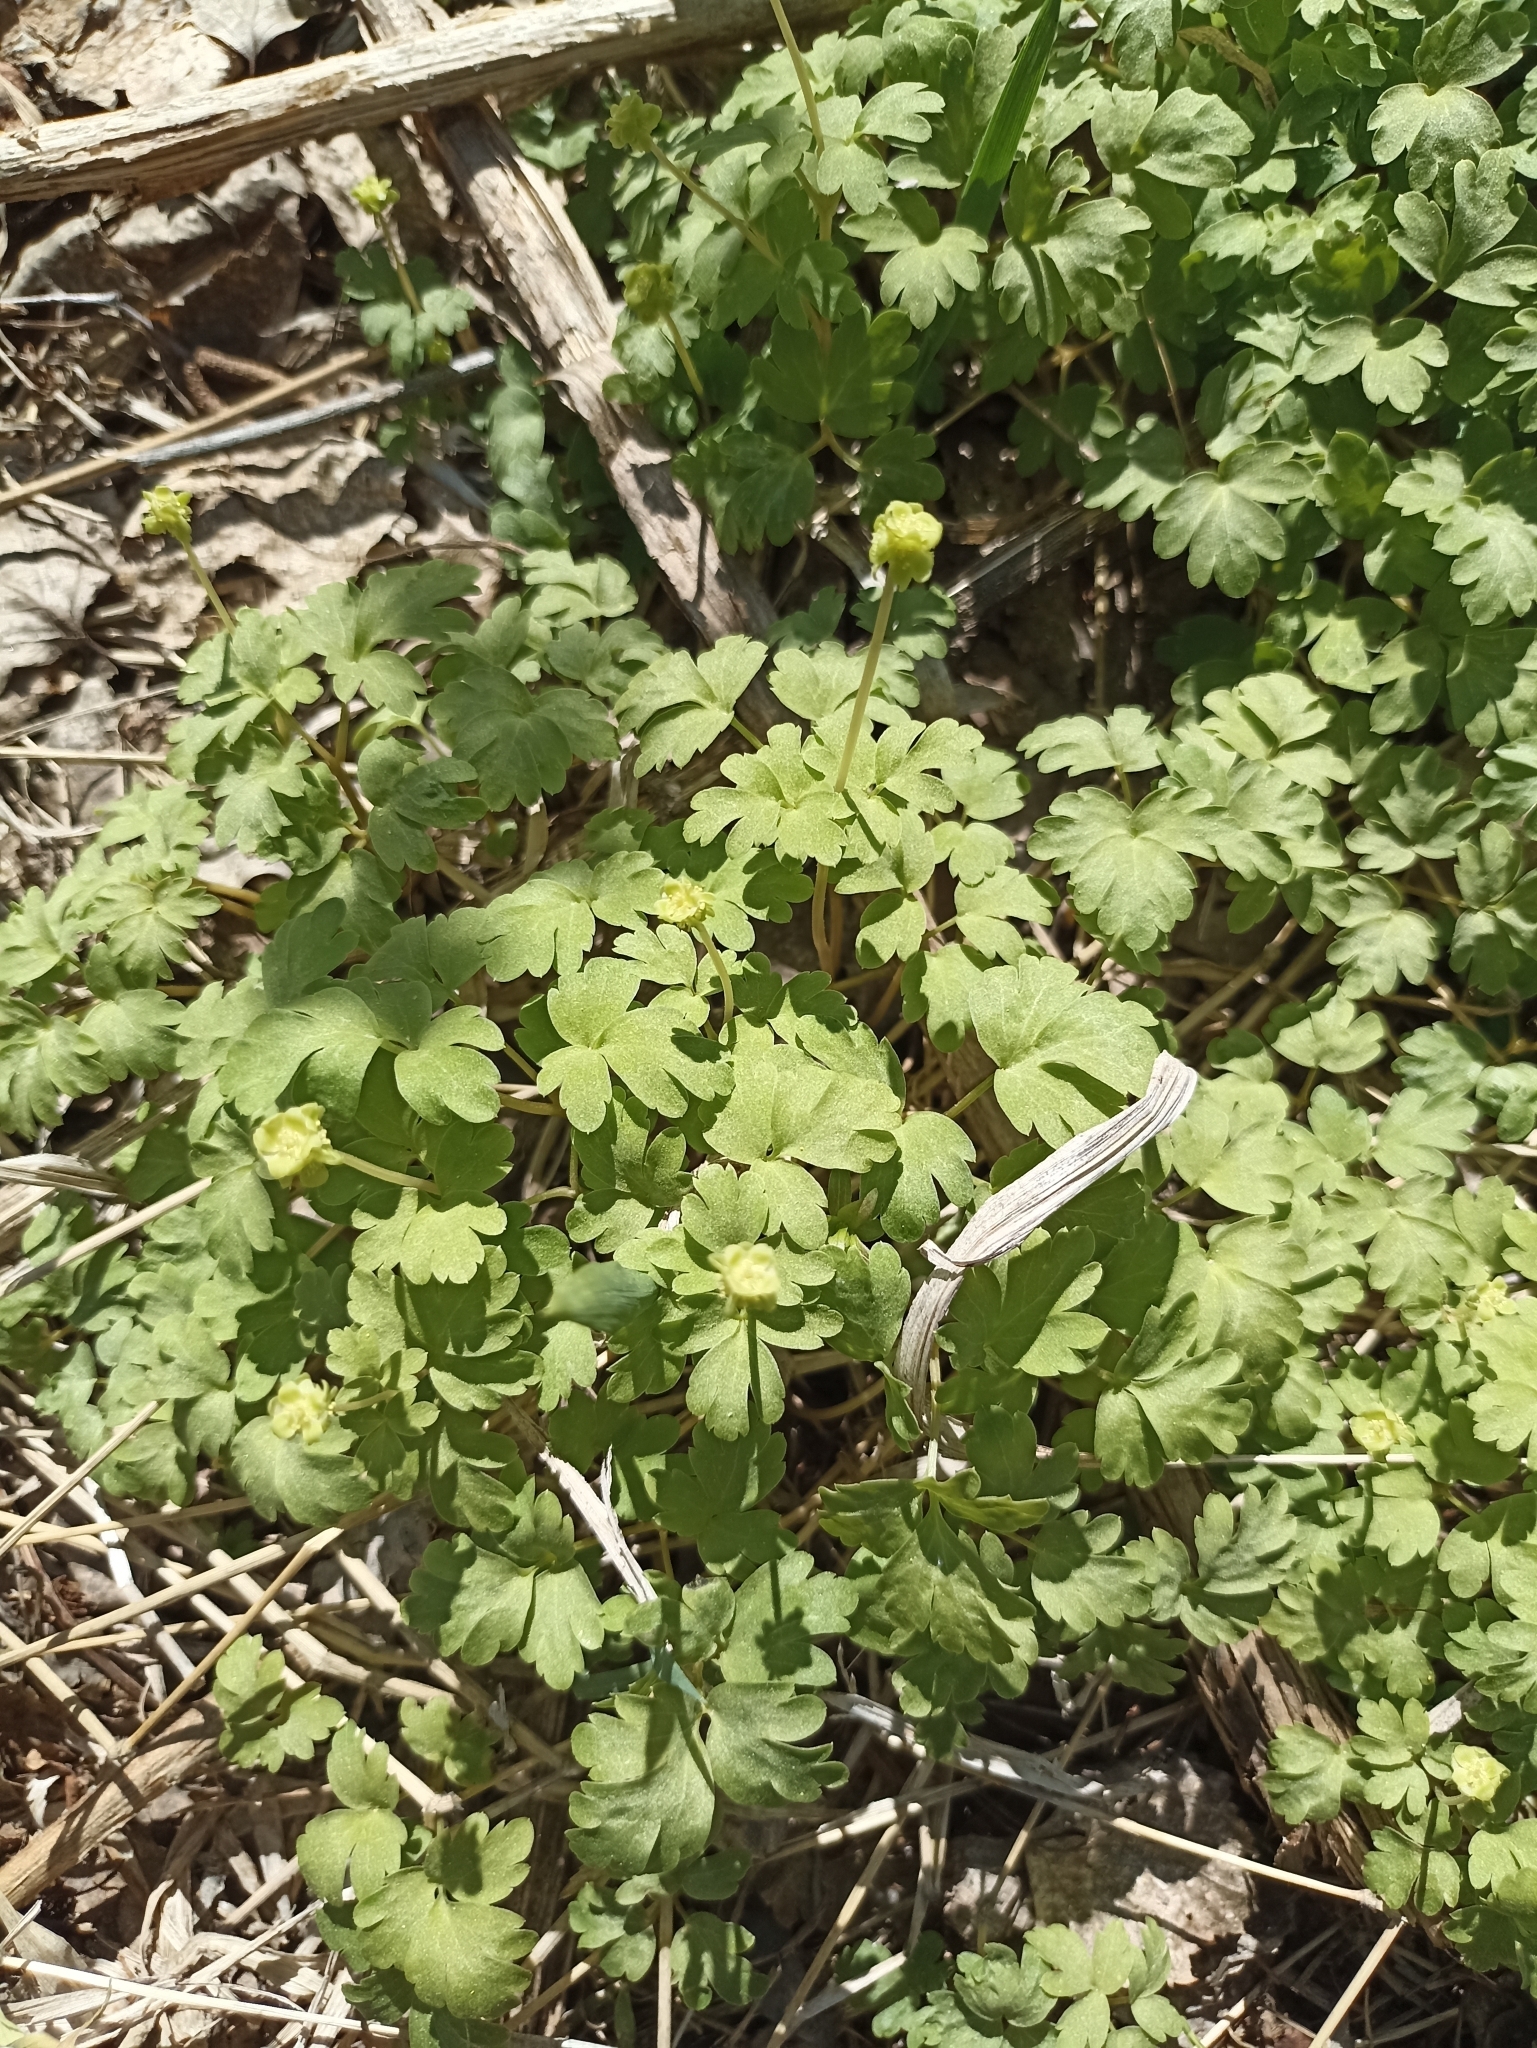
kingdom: Plantae
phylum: Tracheophyta
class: Magnoliopsida
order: Dipsacales
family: Viburnaceae
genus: Adoxa
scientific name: Adoxa moschatellina
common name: Moschatel
